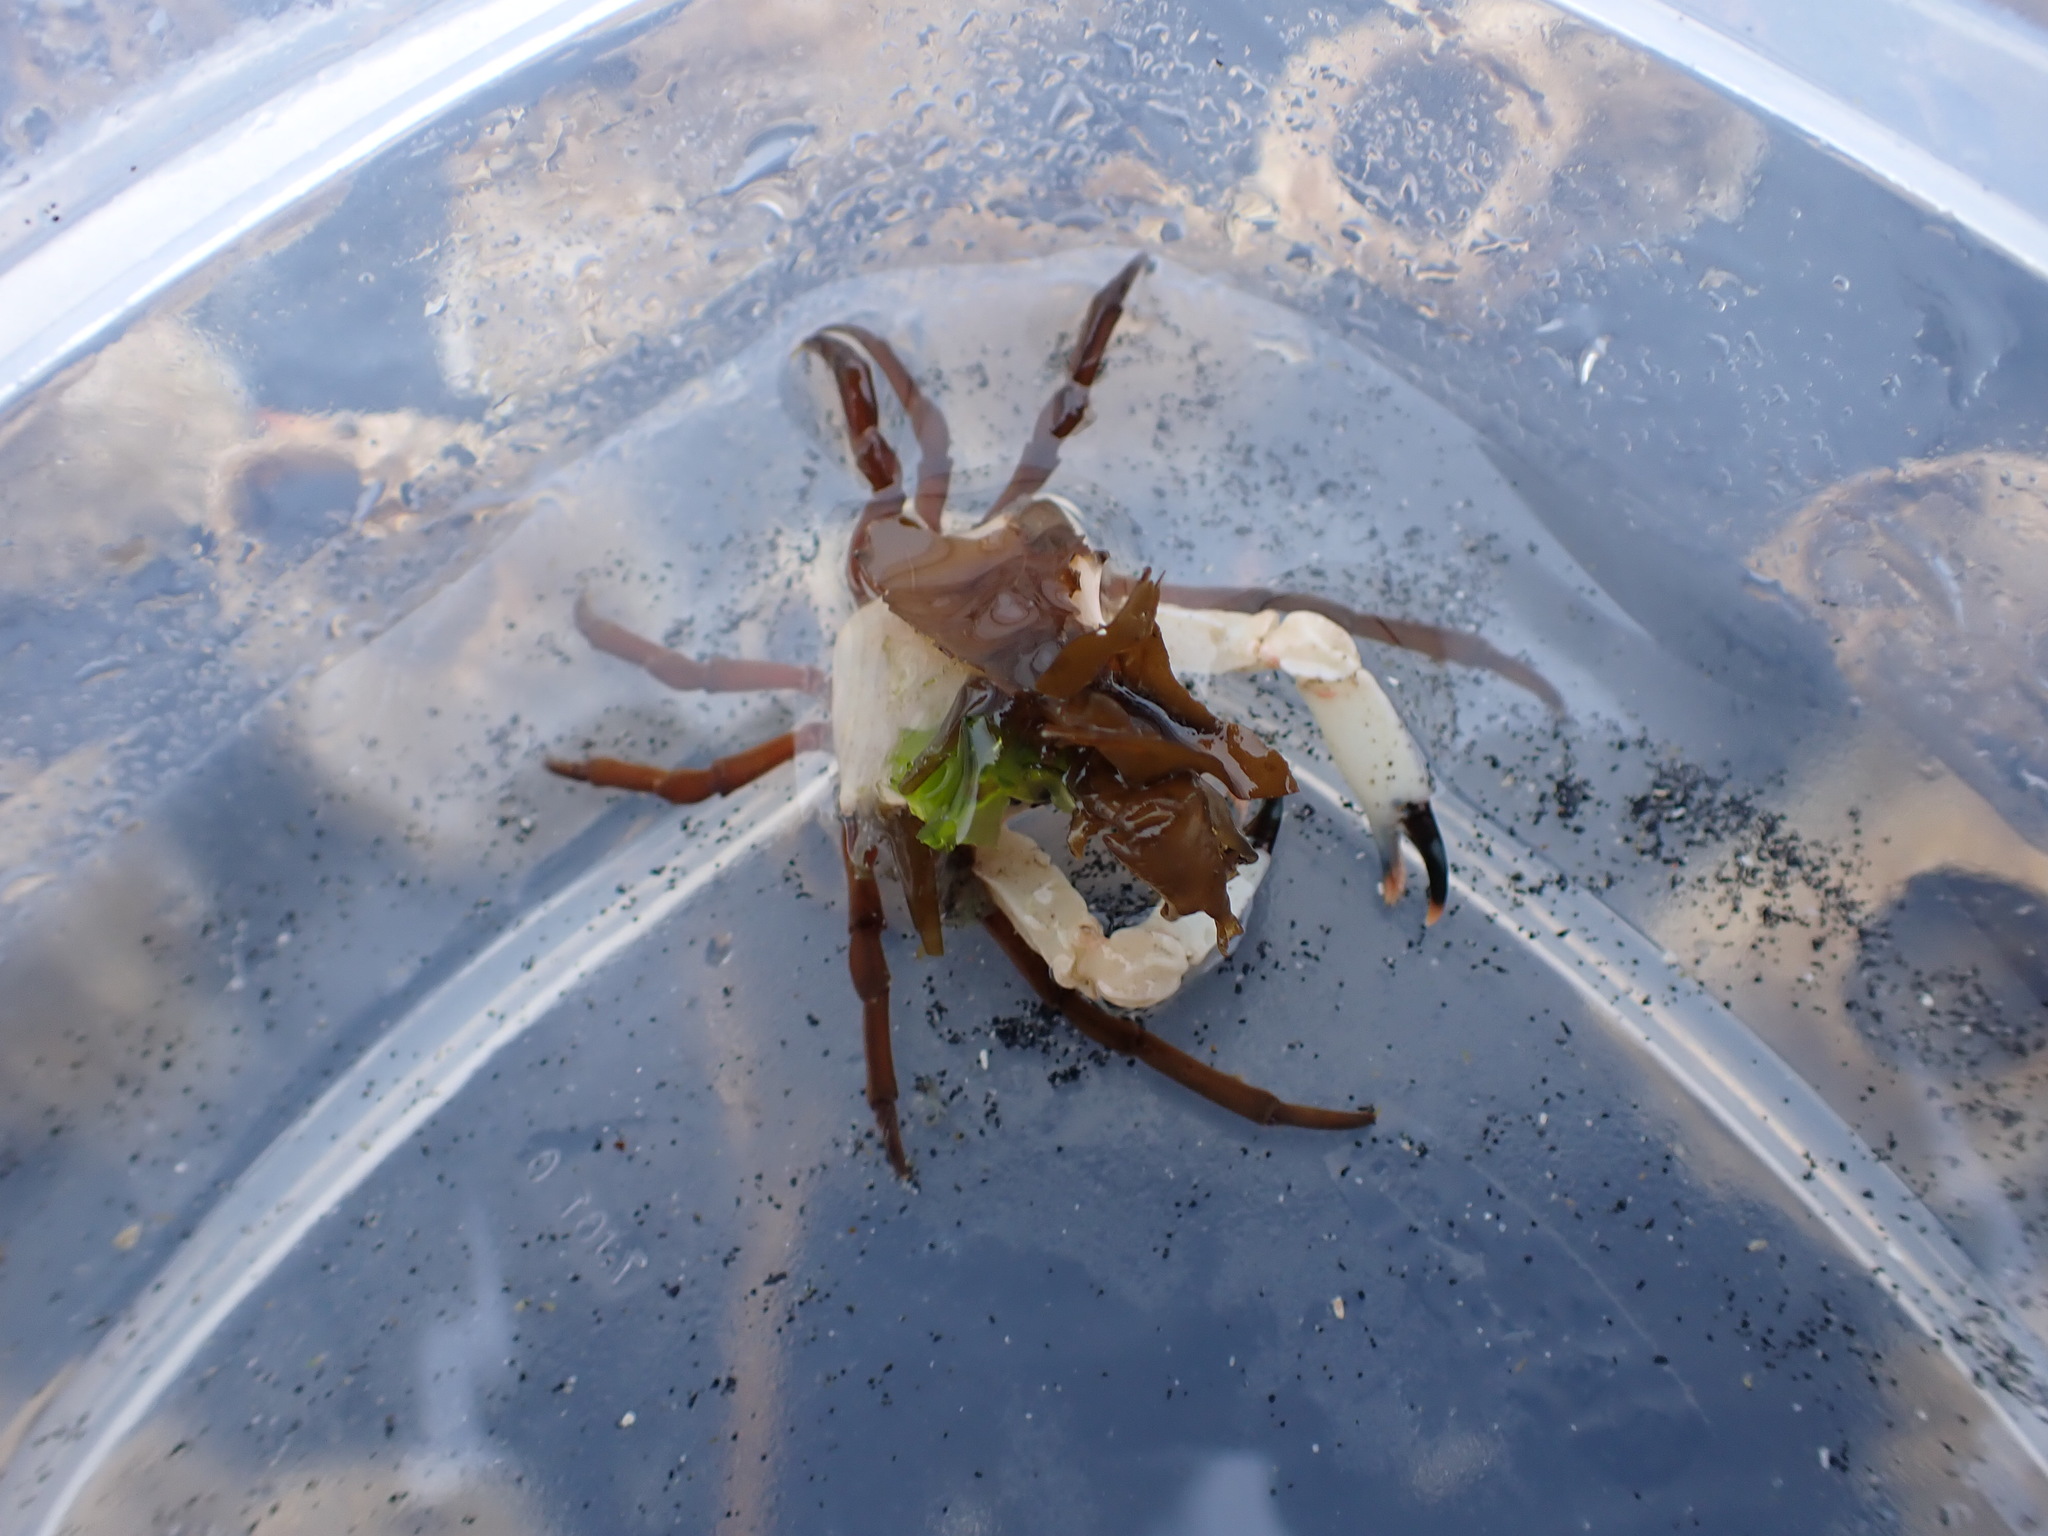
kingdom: Animalia
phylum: Arthropoda
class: Malacostraca
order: Decapoda
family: Epialtidae
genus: Pugettia
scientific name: Pugettia gracilis
